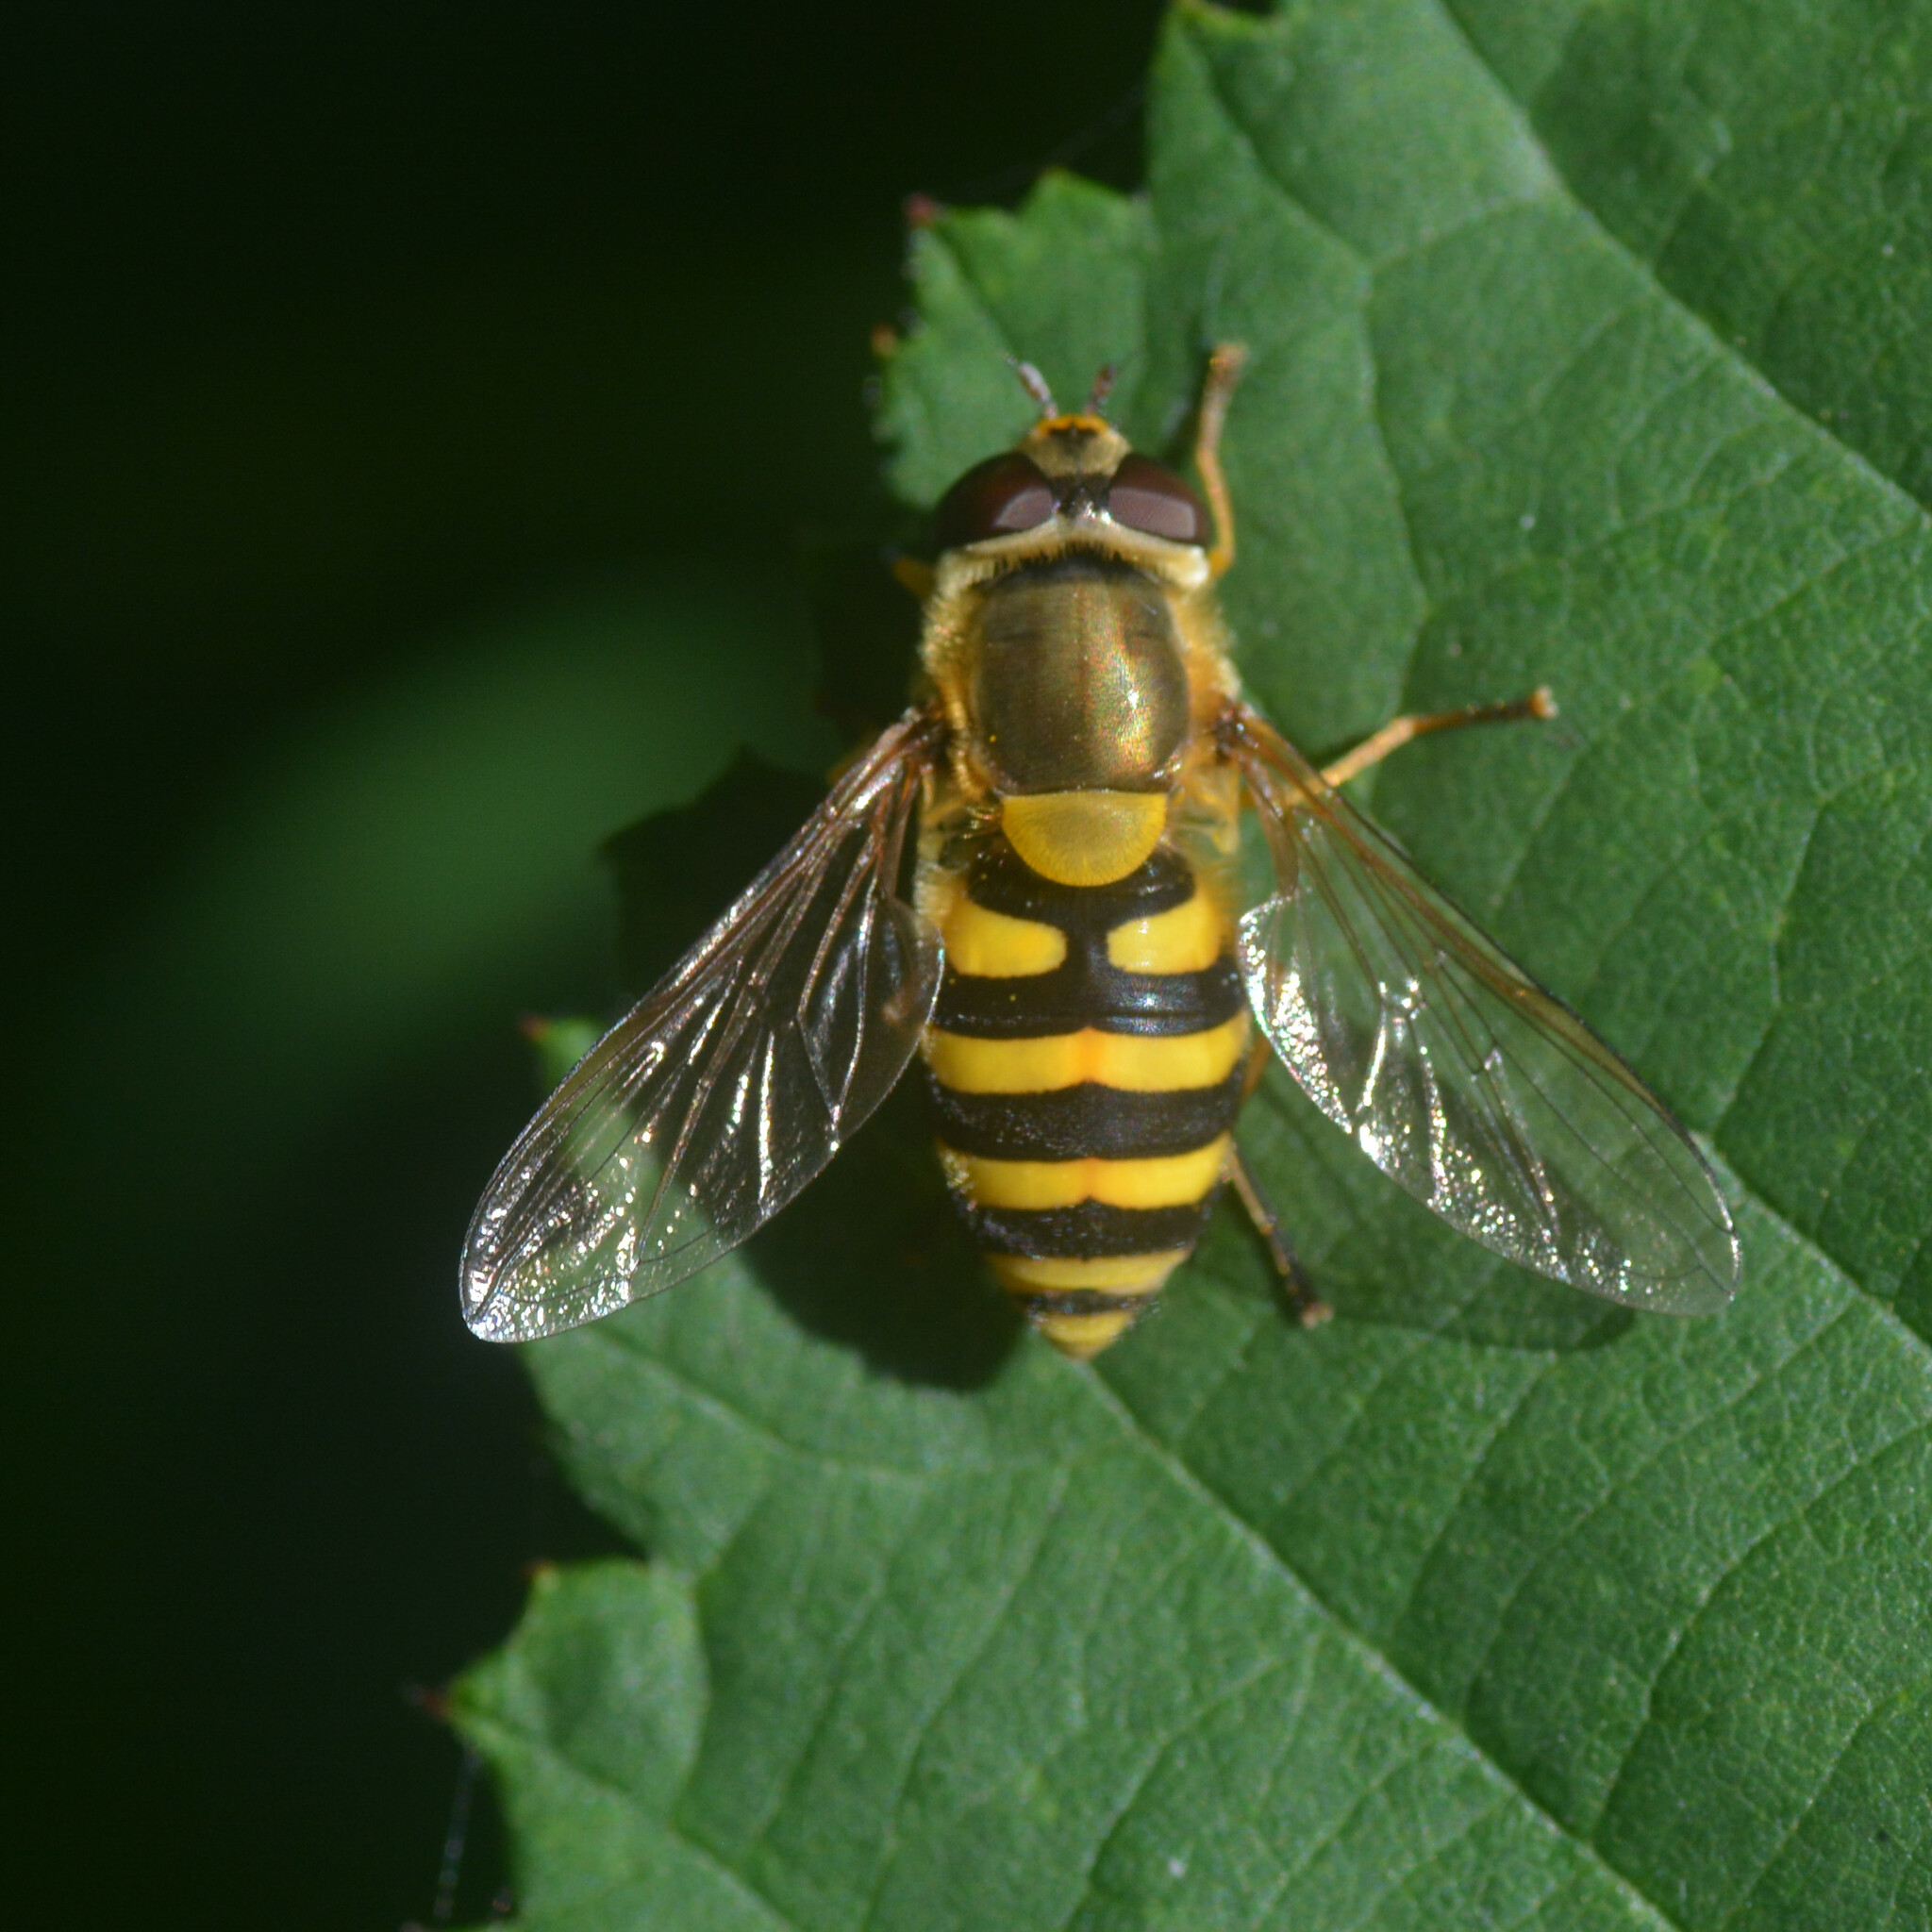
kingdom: Animalia
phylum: Arthropoda
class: Insecta
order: Diptera
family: Syrphidae
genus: Syrphus
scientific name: Syrphus
